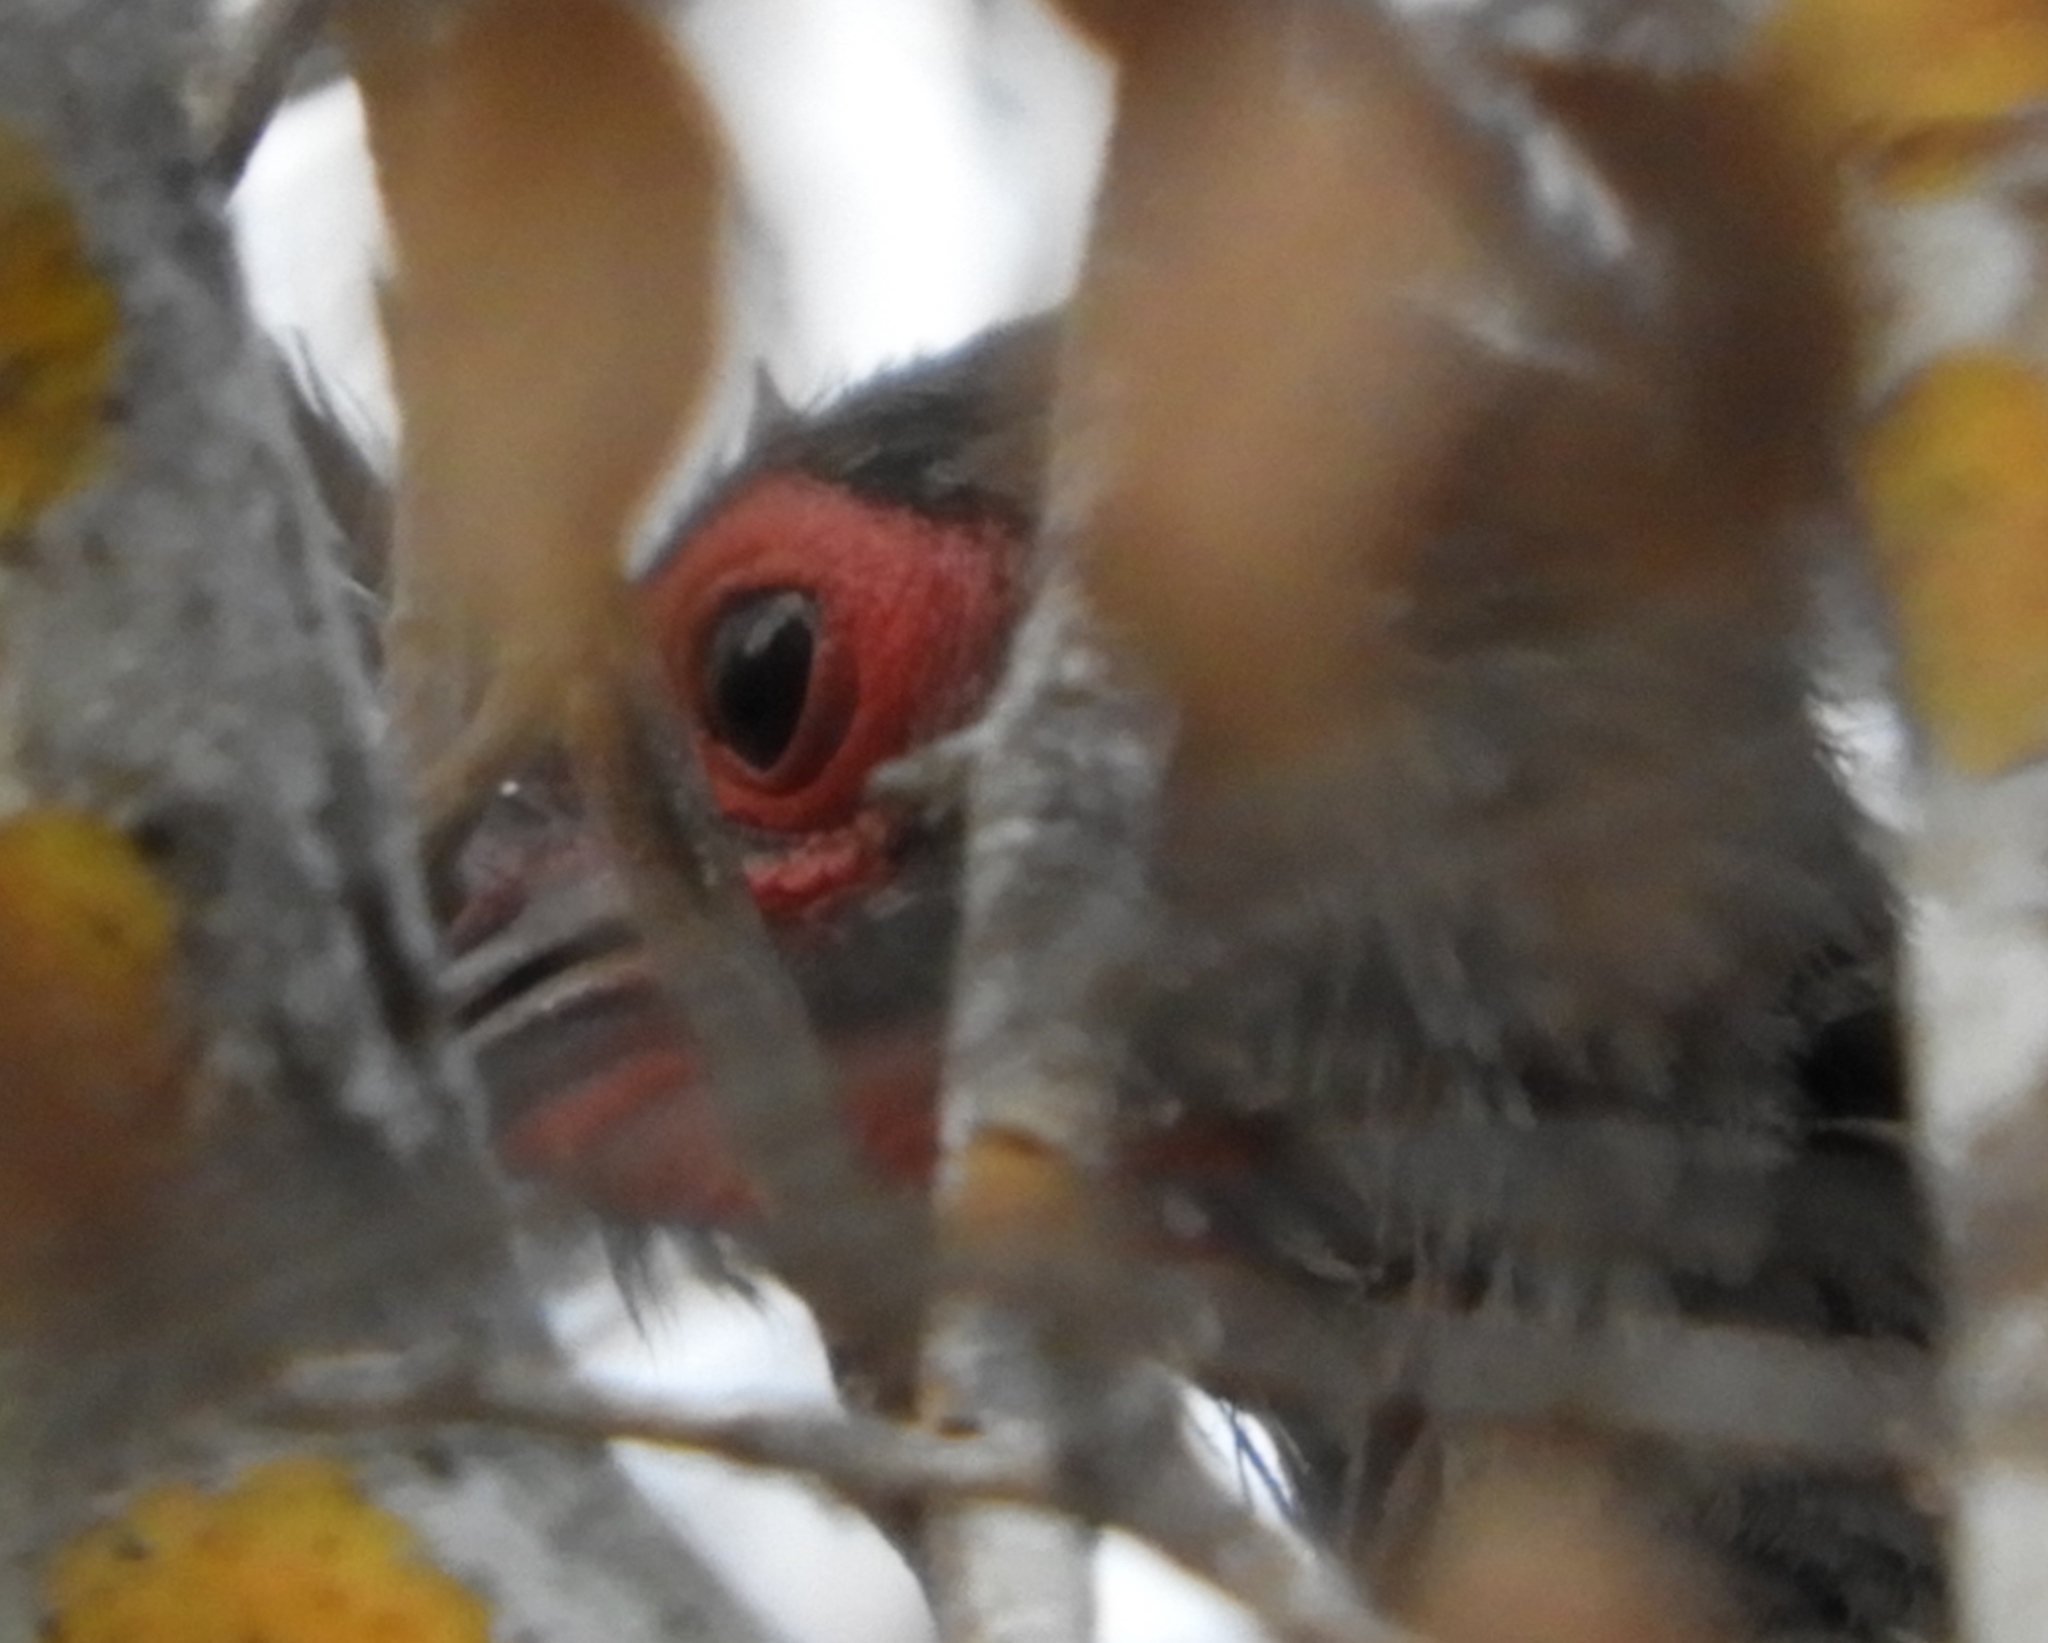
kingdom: Animalia
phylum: Chordata
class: Aves
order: Galliformes
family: Cracidae
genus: Ortalis
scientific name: Ortalis wagleri
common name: Rufous-bellied chachalaca
